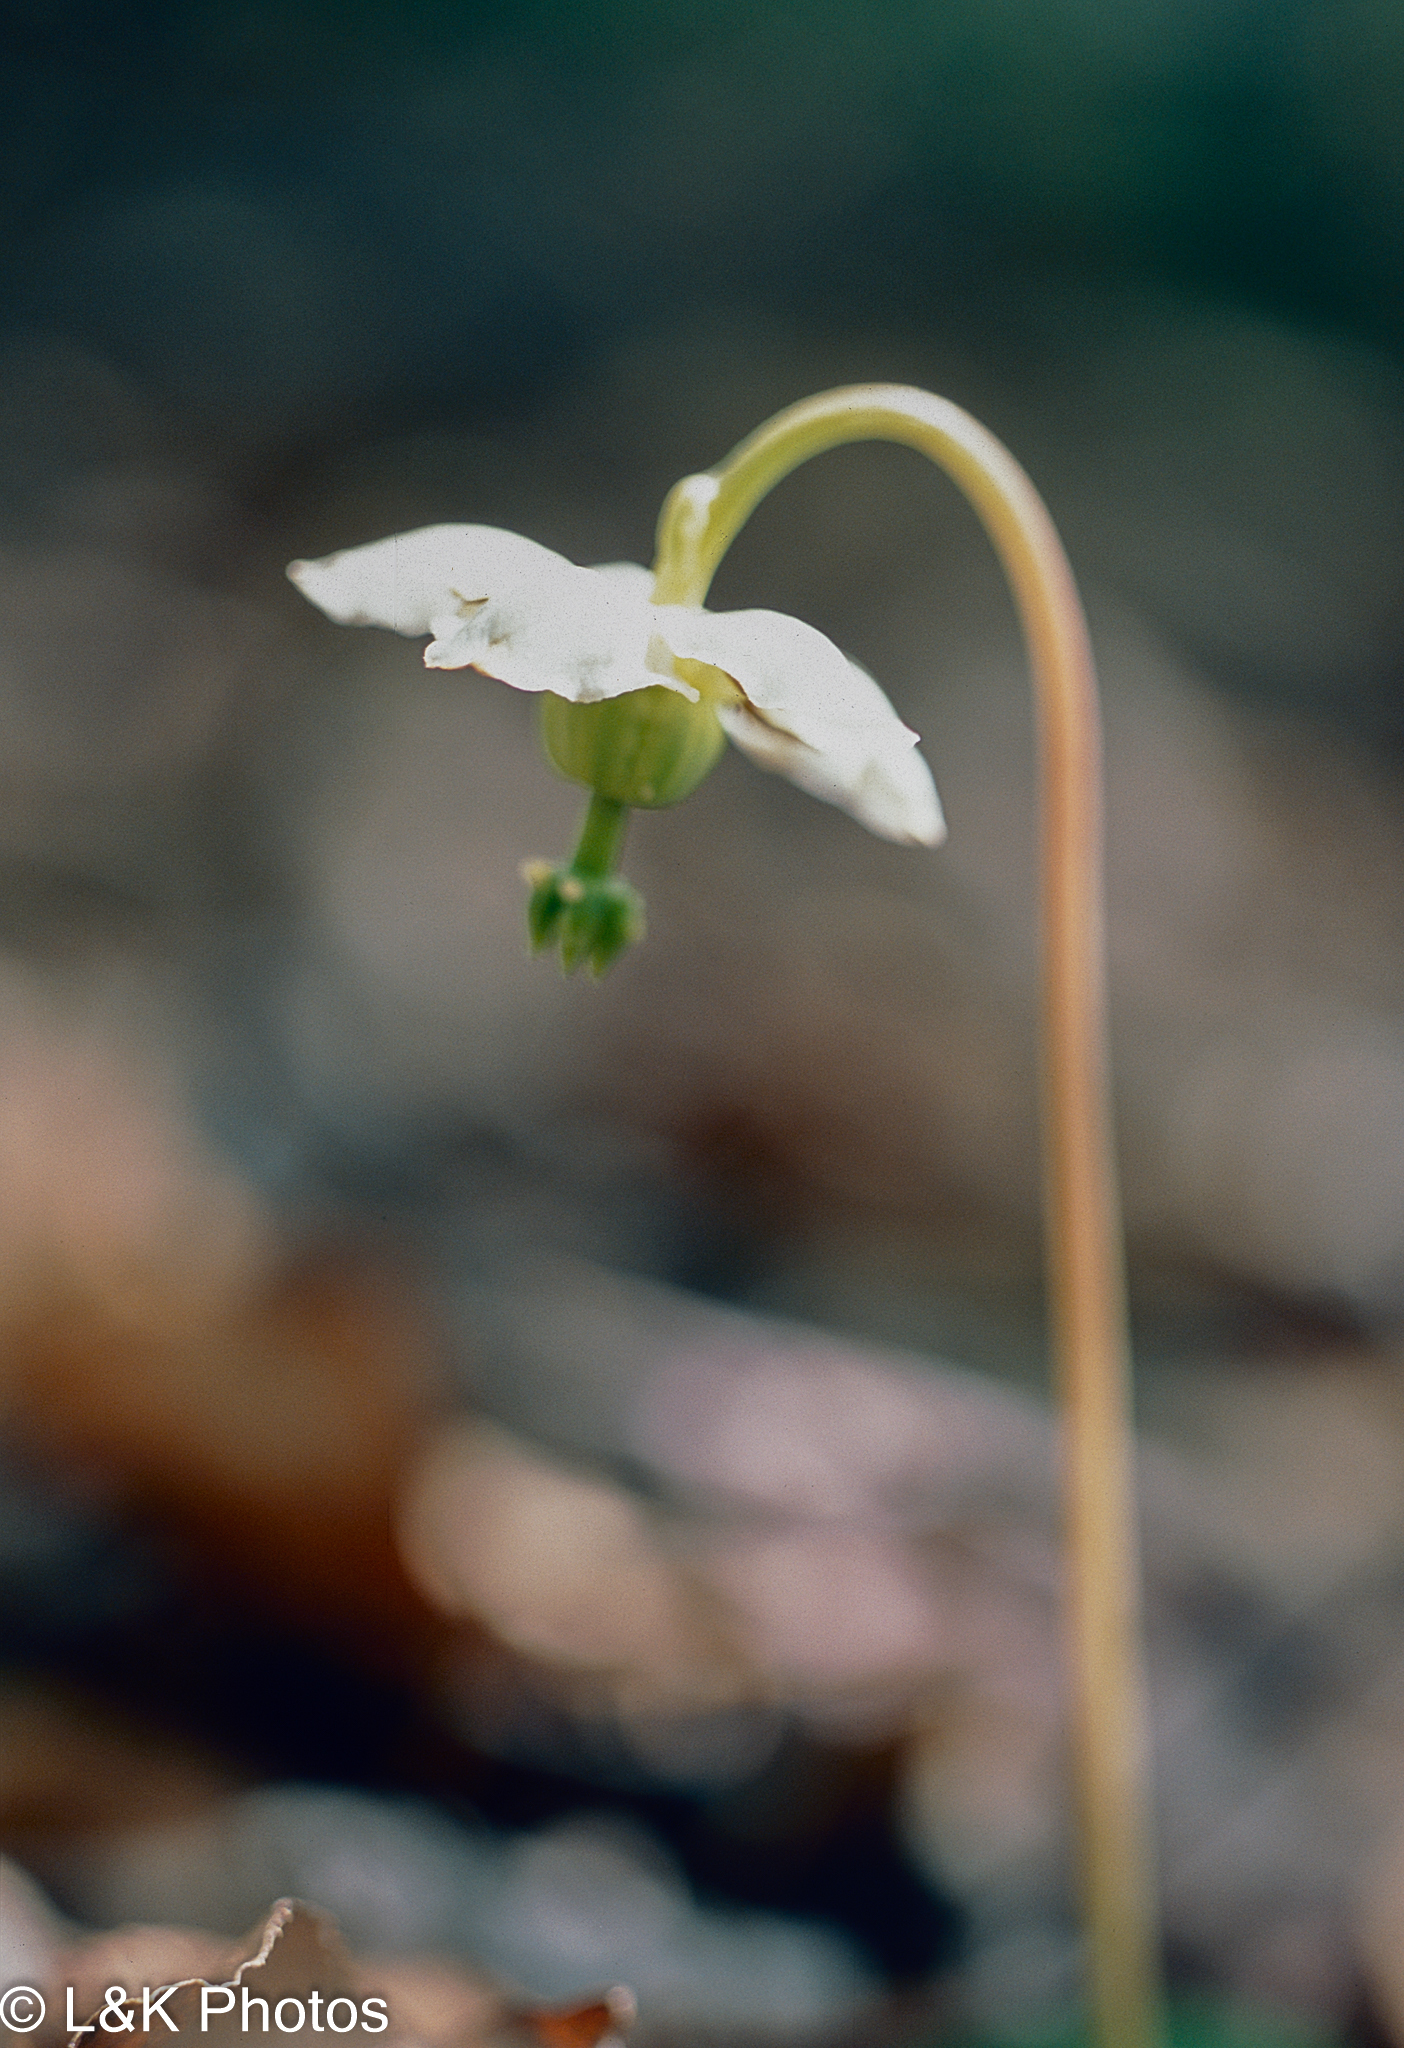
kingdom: Plantae
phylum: Tracheophyta
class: Magnoliopsida
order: Ericales
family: Ericaceae
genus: Moneses
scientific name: Moneses uniflora
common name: One-flowered wintergreen
